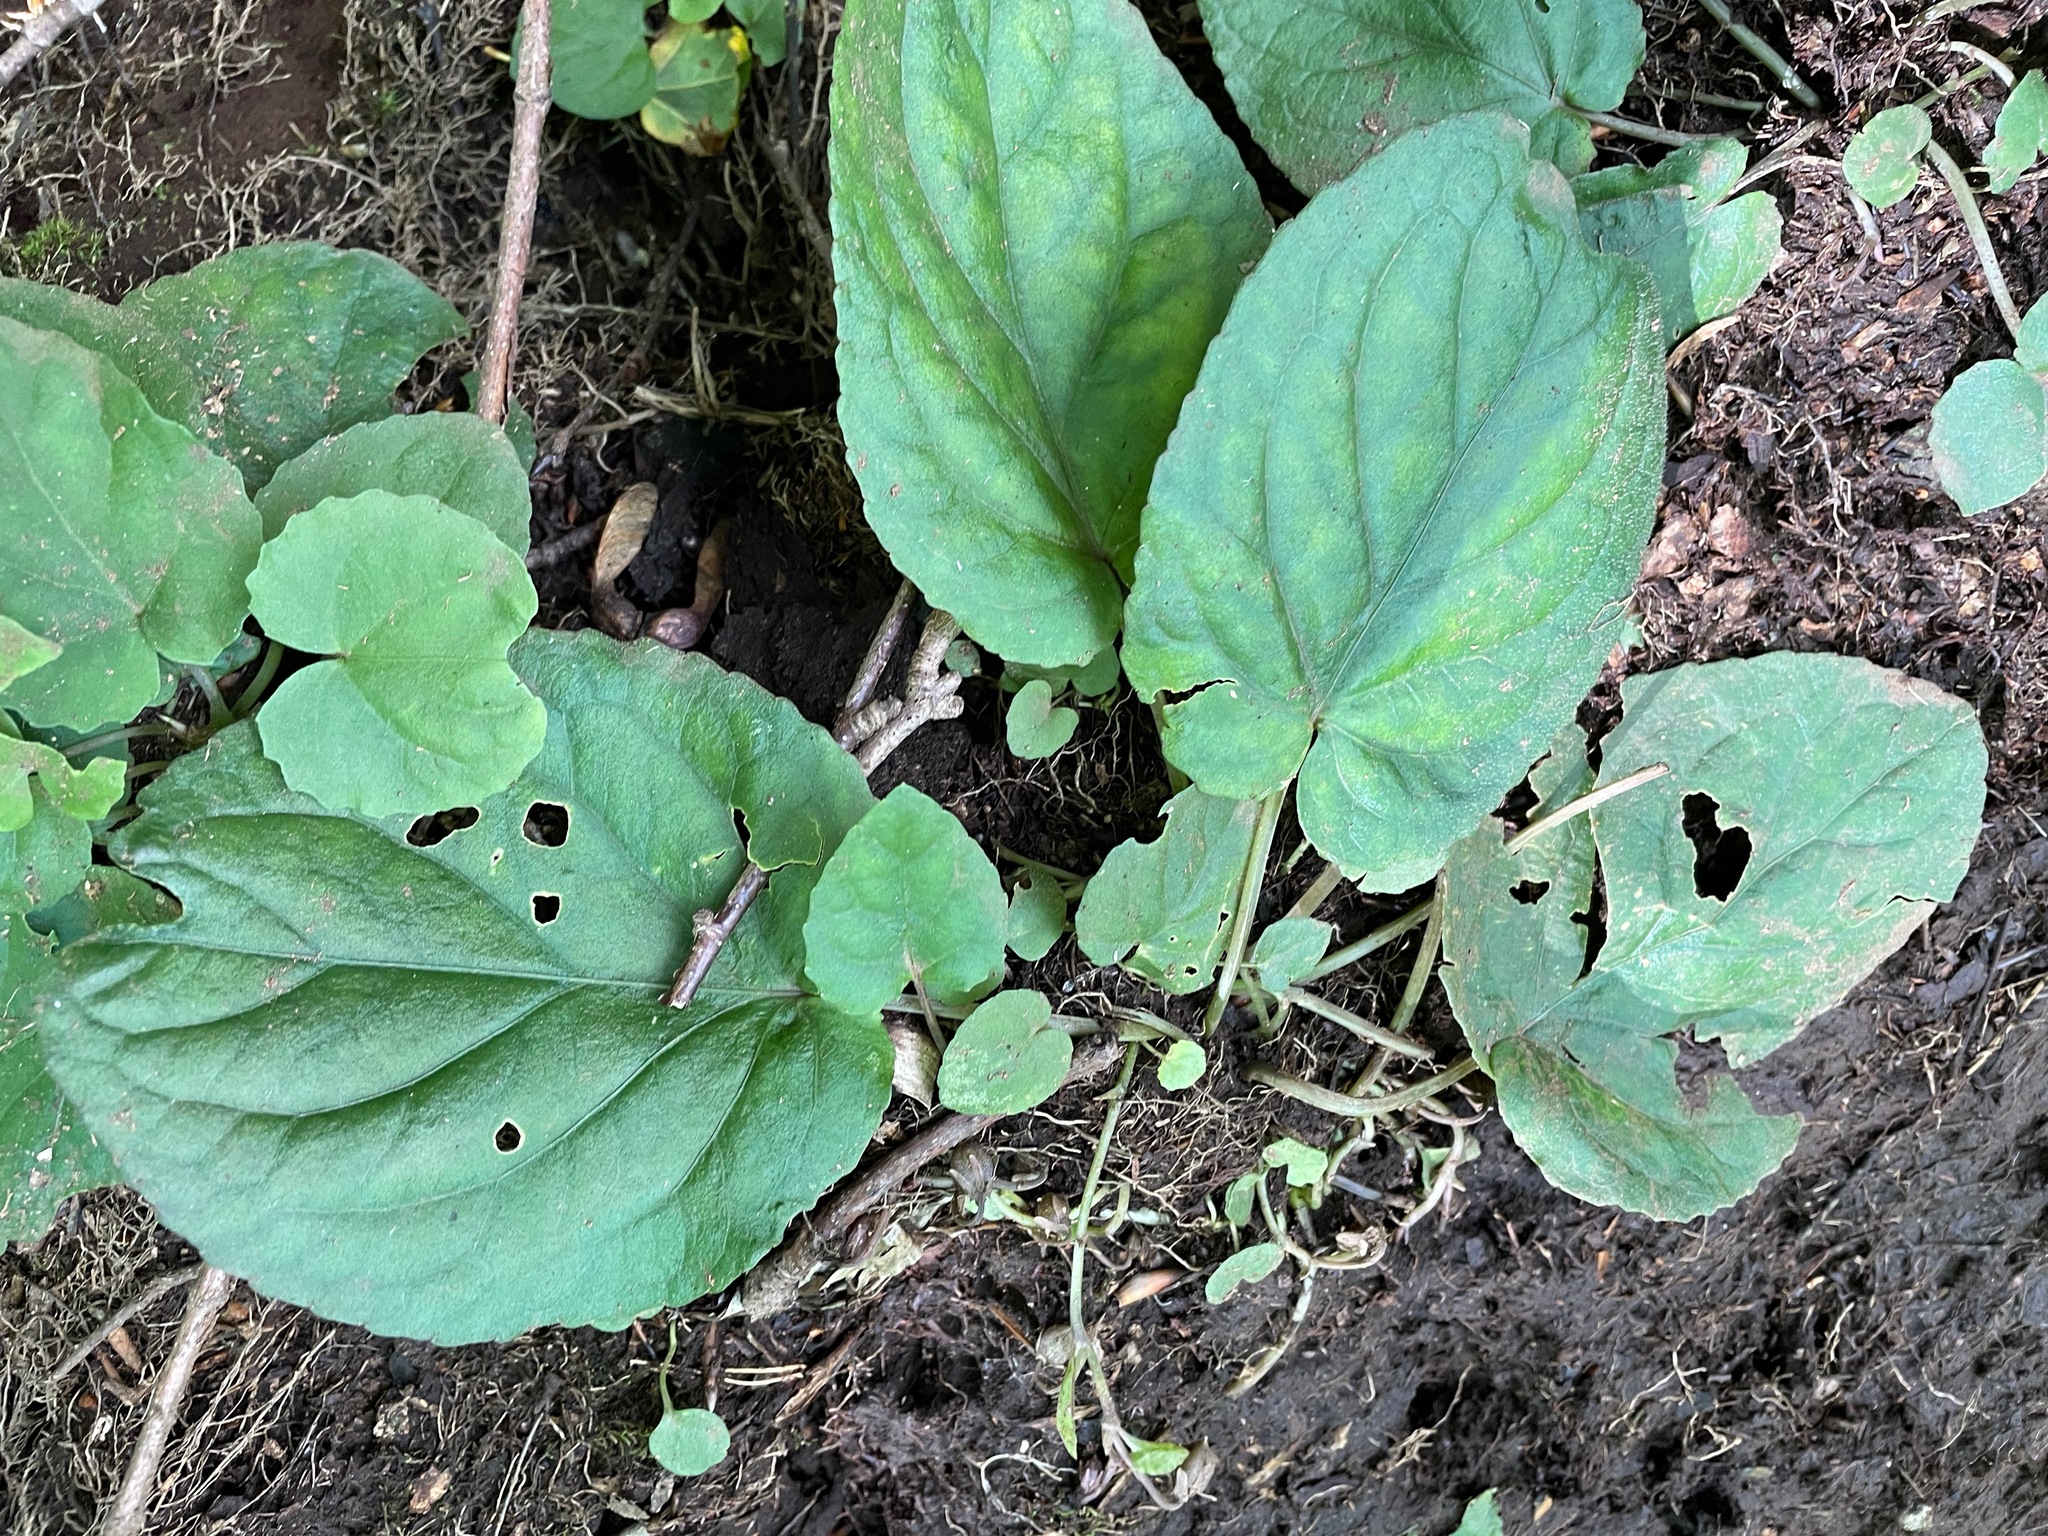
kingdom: Plantae
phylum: Tracheophyta
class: Magnoliopsida
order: Malpighiales
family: Violaceae
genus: Viola
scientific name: Viola rotundifolia
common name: Early yellow violet
